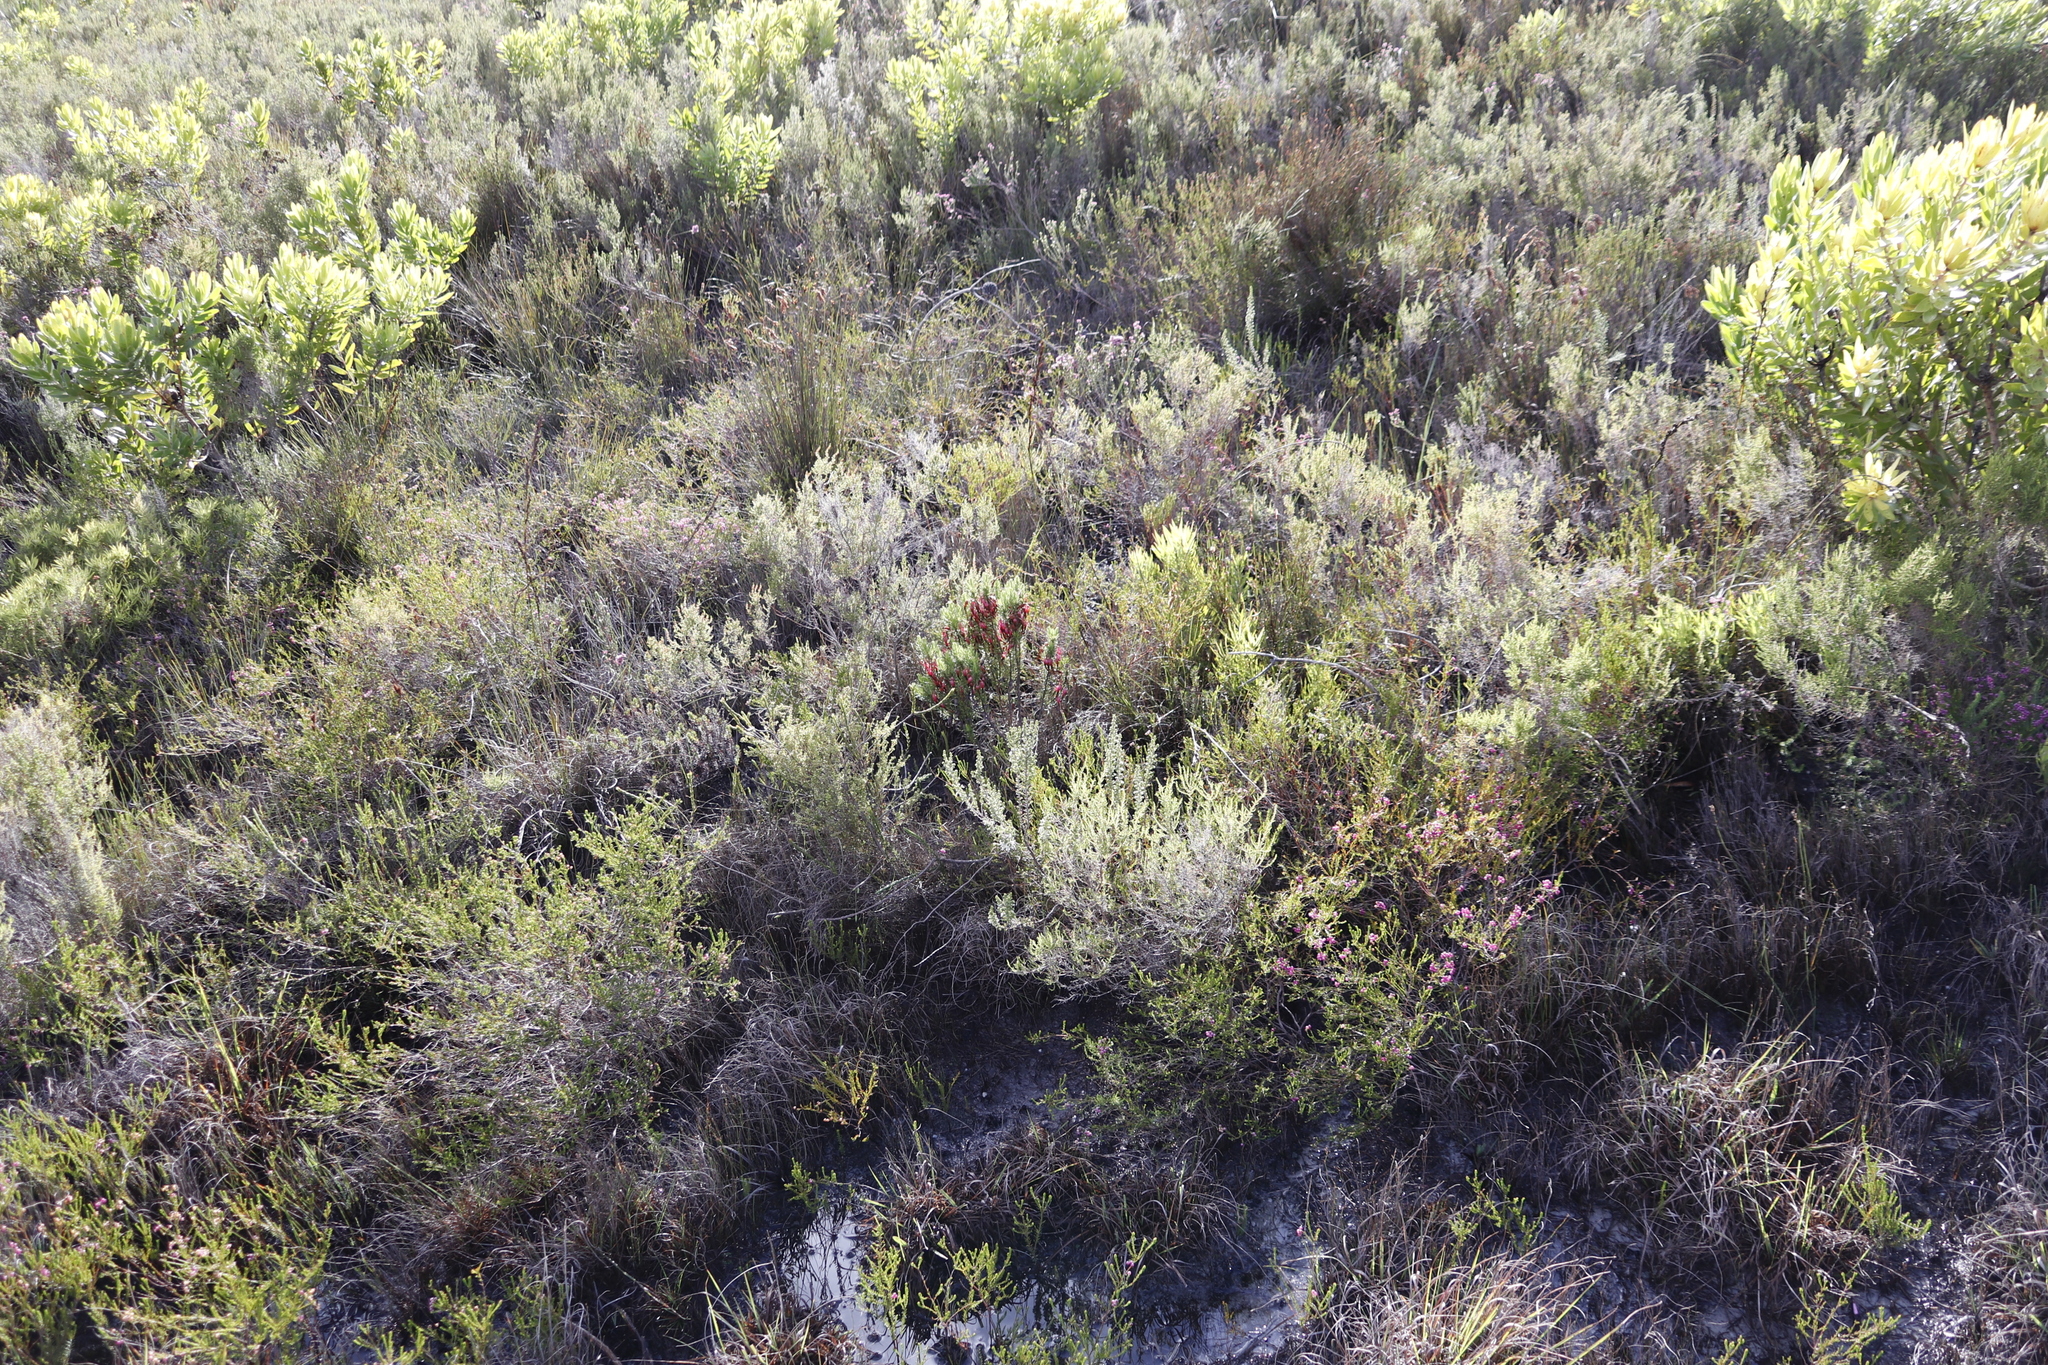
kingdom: Plantae
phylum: Tracheophyta
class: Magnoliopsida
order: Ericales
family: Ericaceae
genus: Erica
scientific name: Erica multumbellifera
